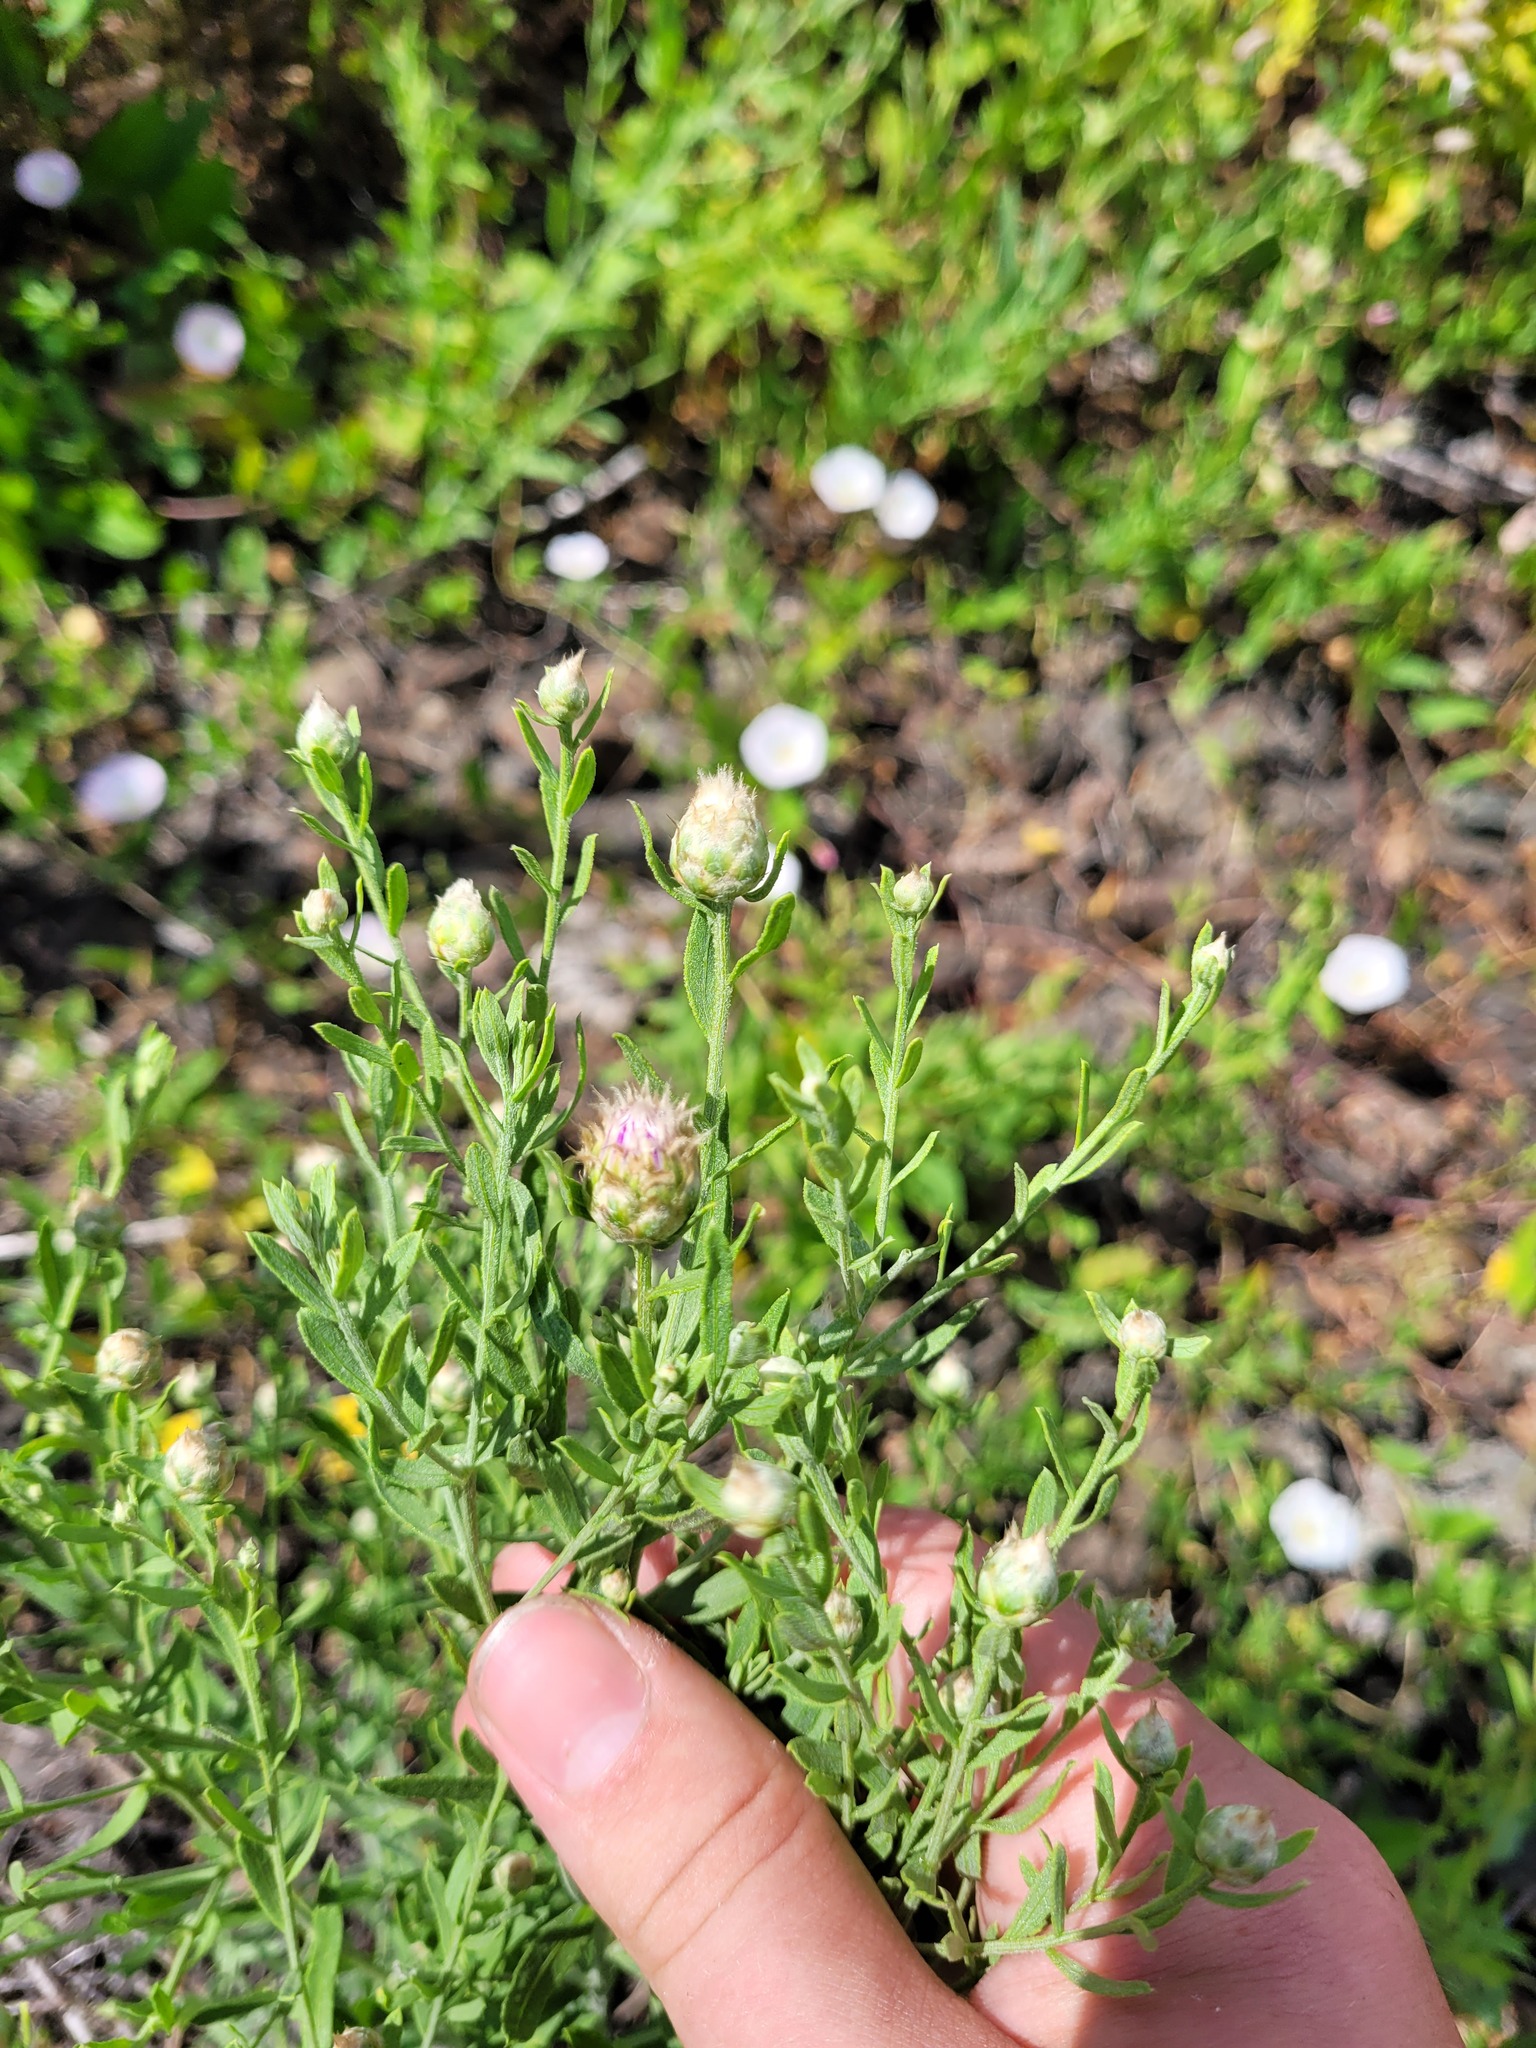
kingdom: Plantae
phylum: Tracheophyta
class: Magnoliopsida
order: Asterales
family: Asteraceae
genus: Leuzea
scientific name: Leuzea repens
